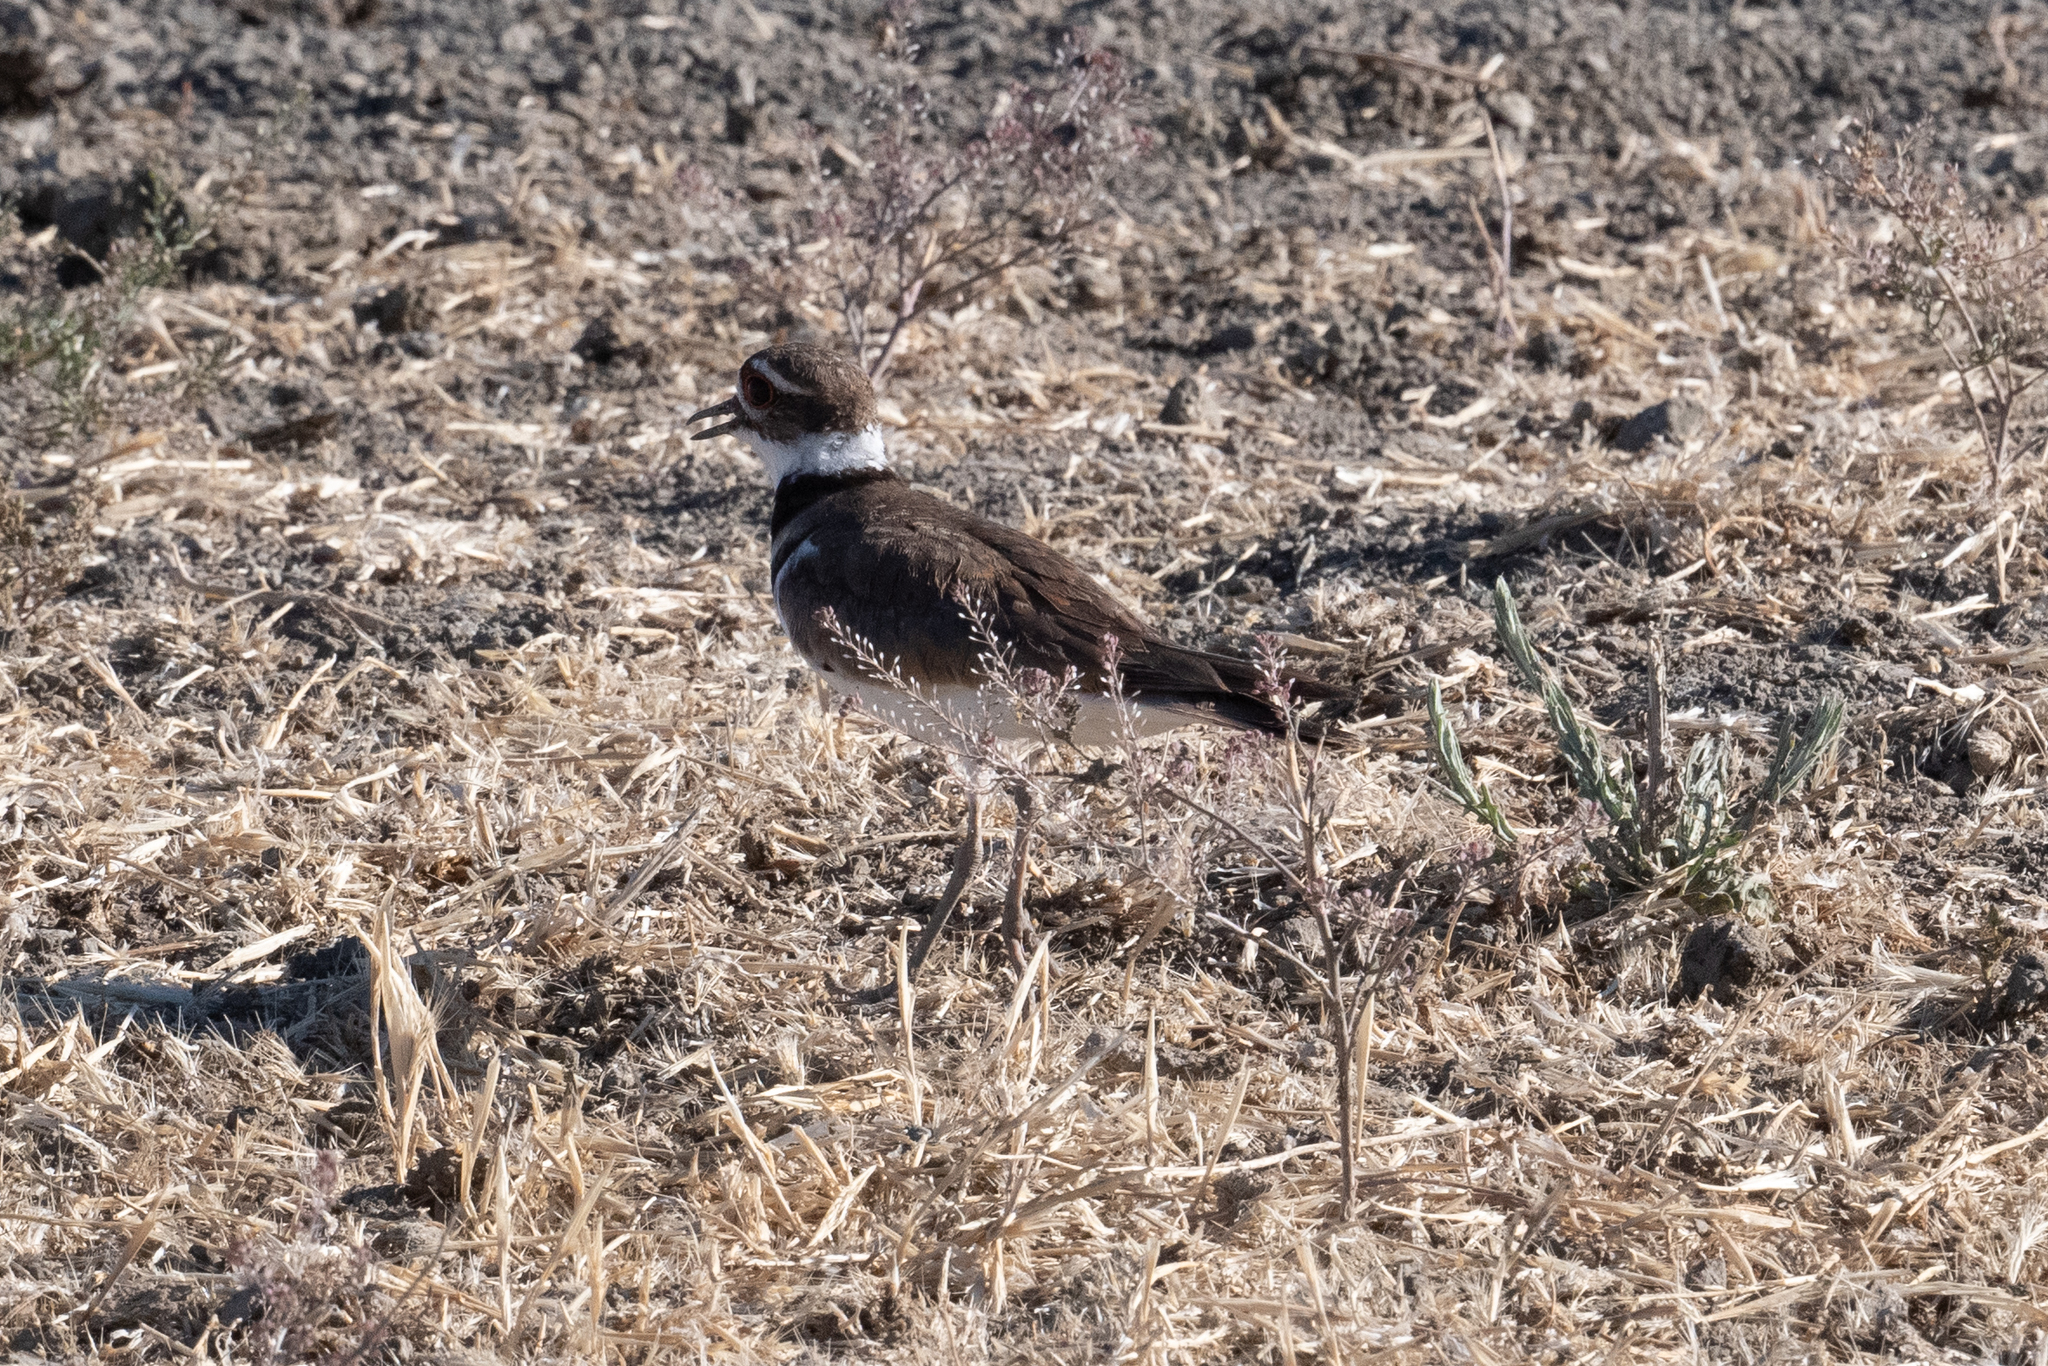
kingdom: Animalia
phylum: Chordata
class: Aves
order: Charadriiformes
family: Charadriidae
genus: Charadrius
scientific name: Charadrius vociferus
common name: Killdeer
